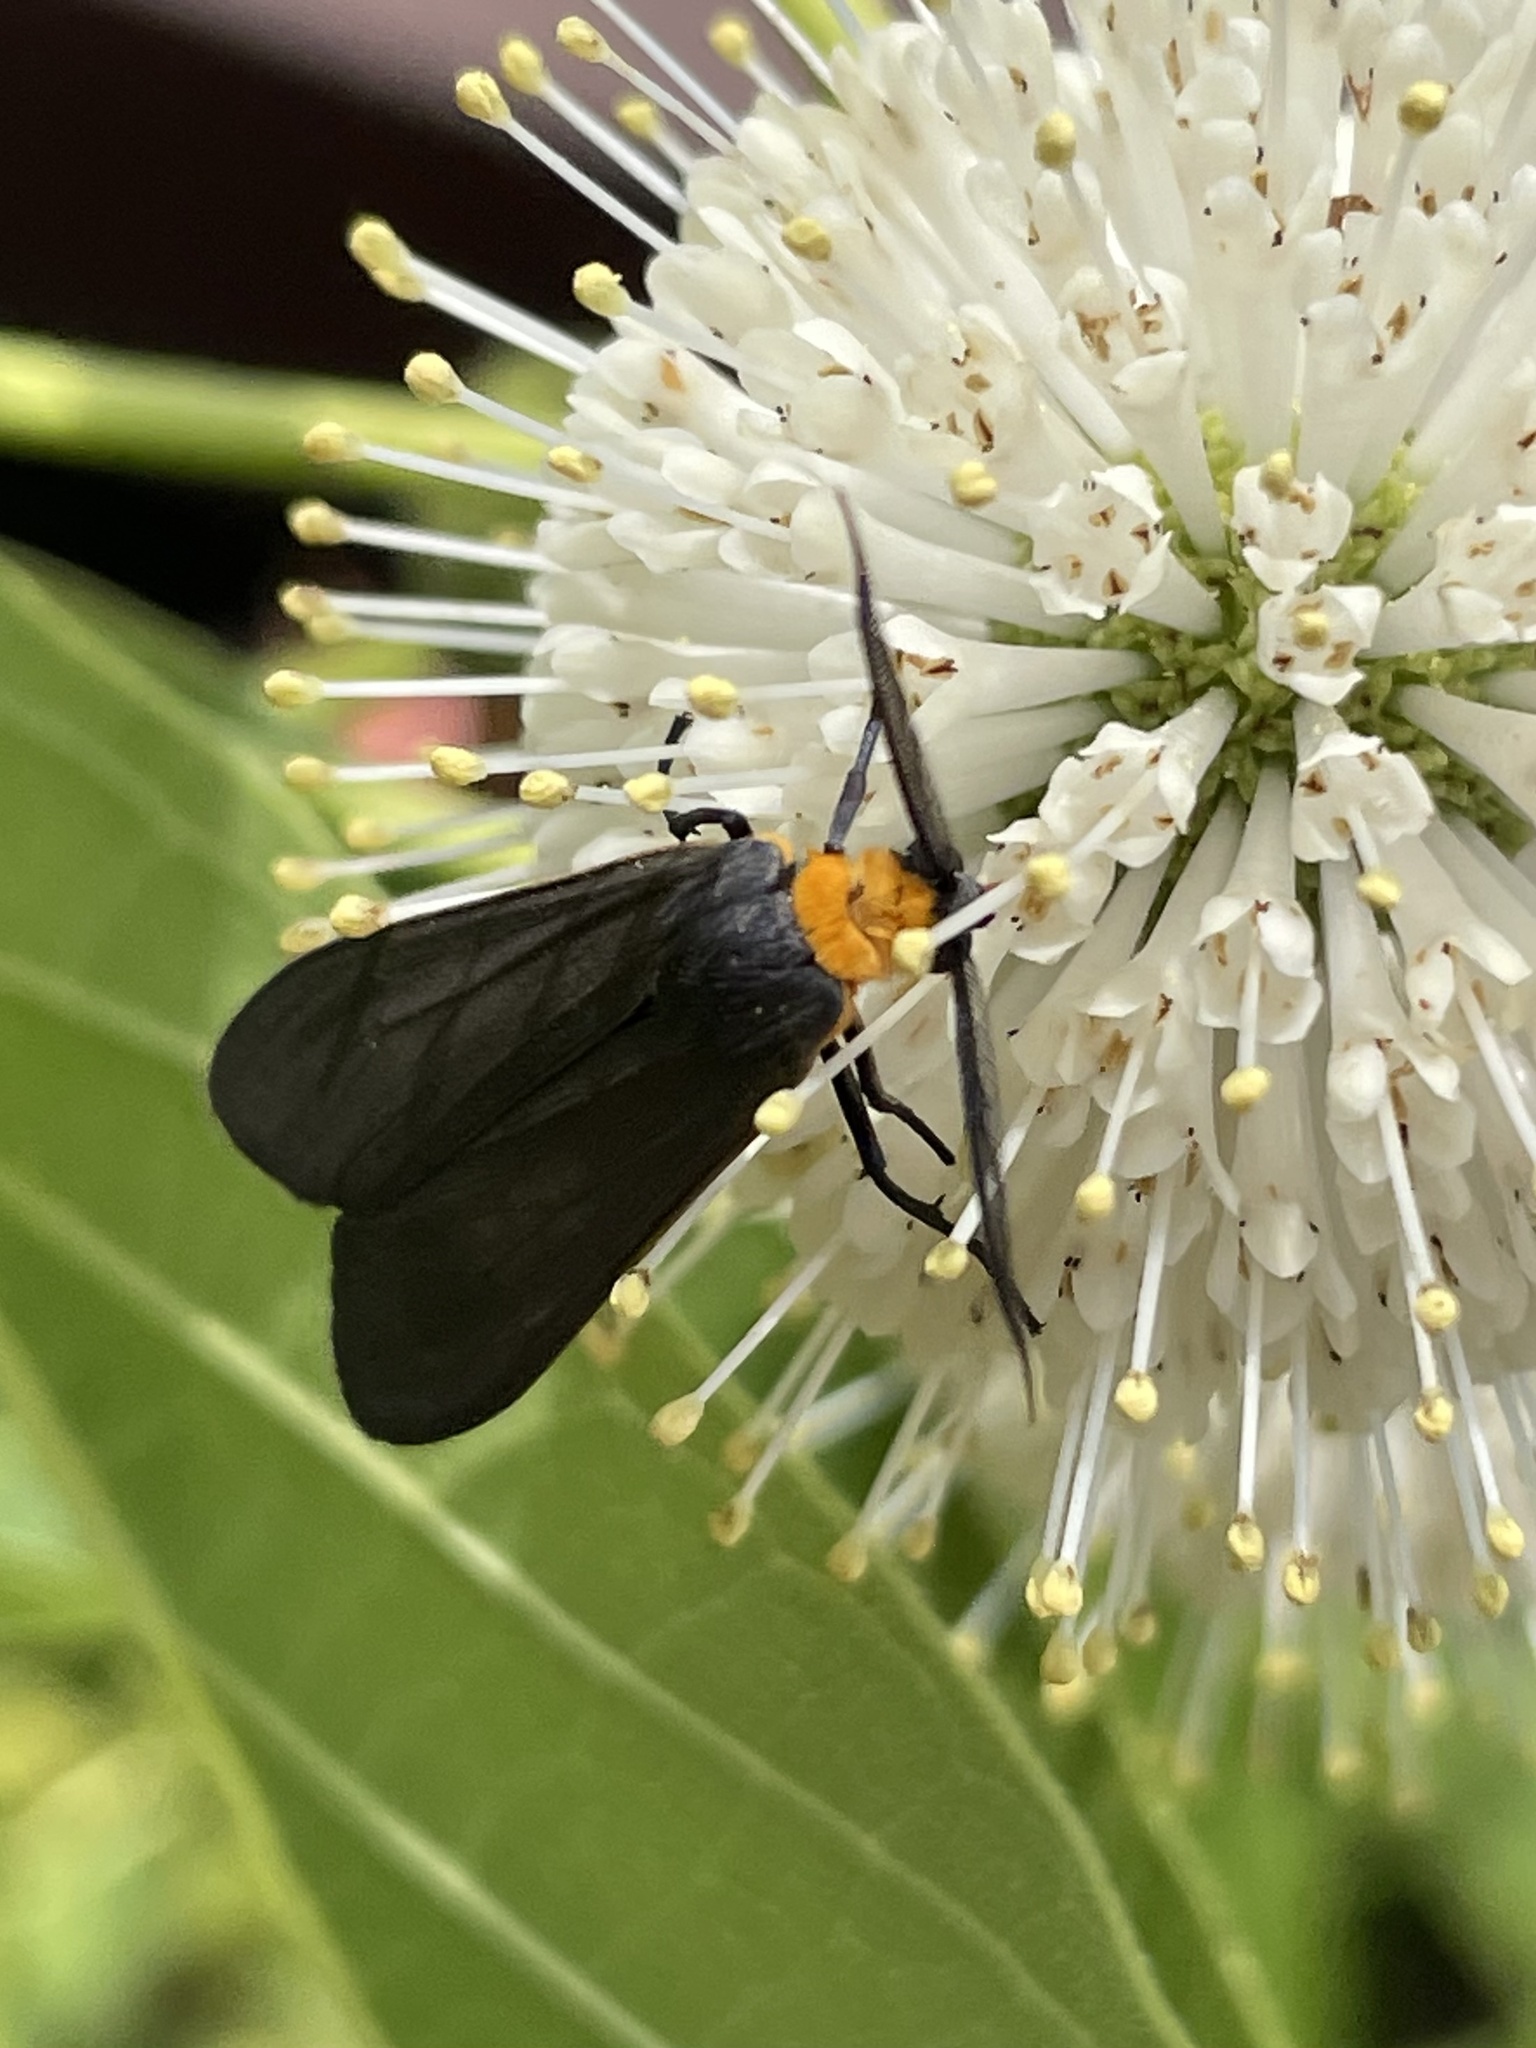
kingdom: Animalia
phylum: Arthropoda
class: Insecta
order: Lepidoptera
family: Erebidae
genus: Cisseps
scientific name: Cisseps fulvicollis
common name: Yellow-collared scape moth
